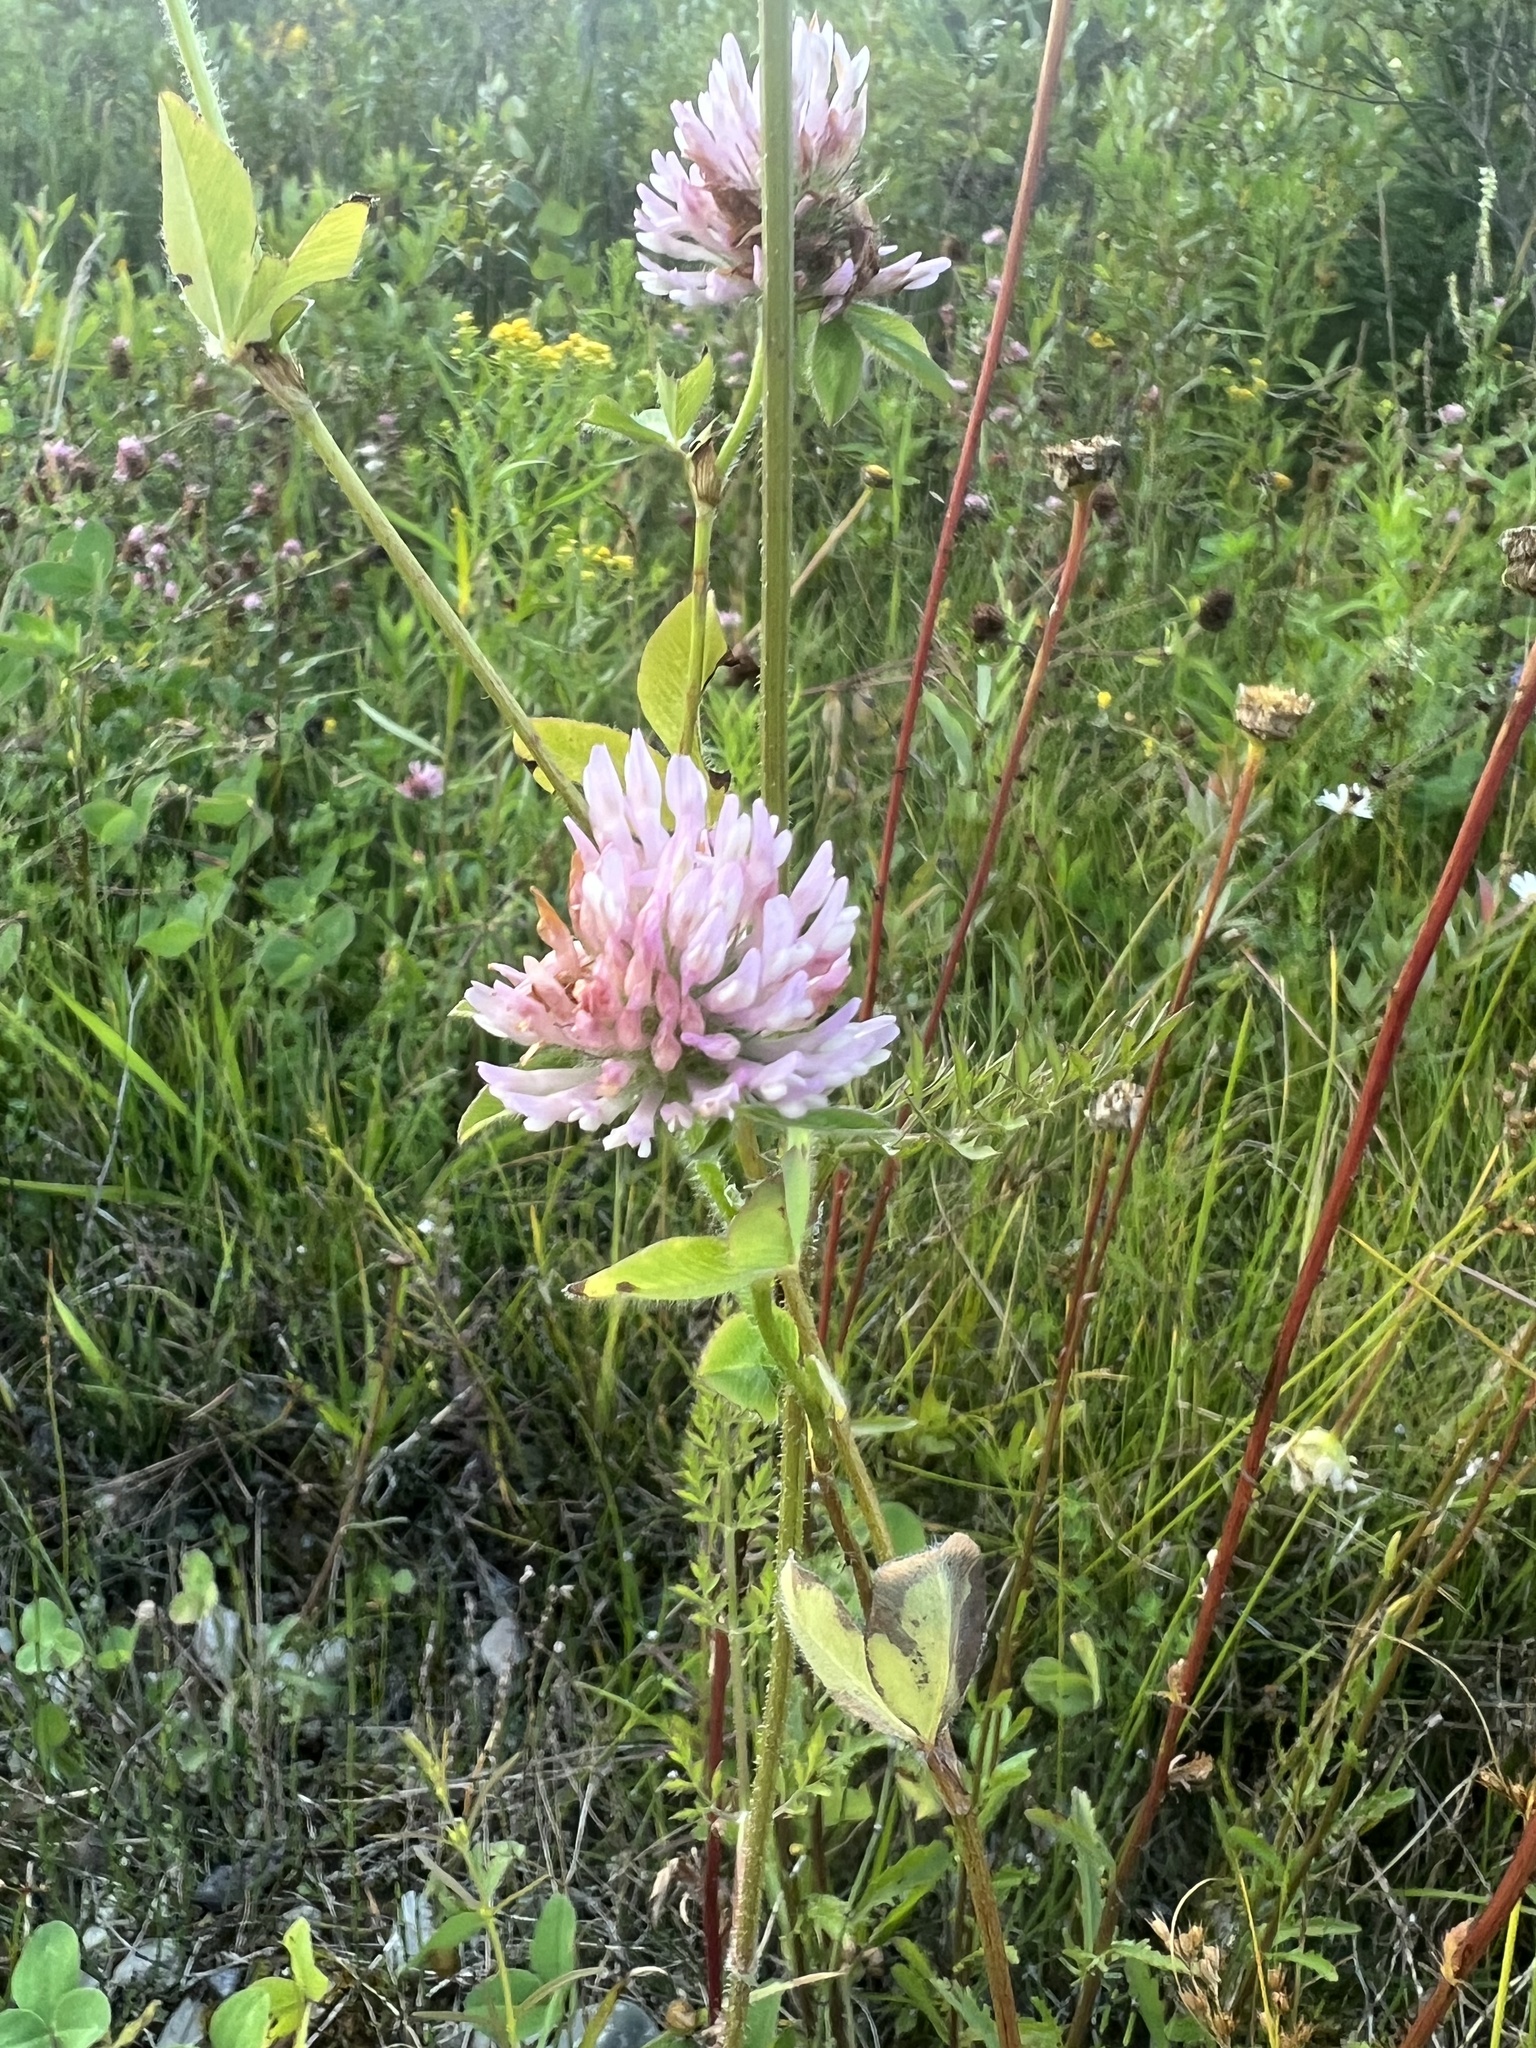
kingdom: Plantae
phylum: Tracheophyta
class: Magnoliopsida
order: Fabales
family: Fabaceae
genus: Trifolium
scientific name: Trifolium pratense
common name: Red clover
